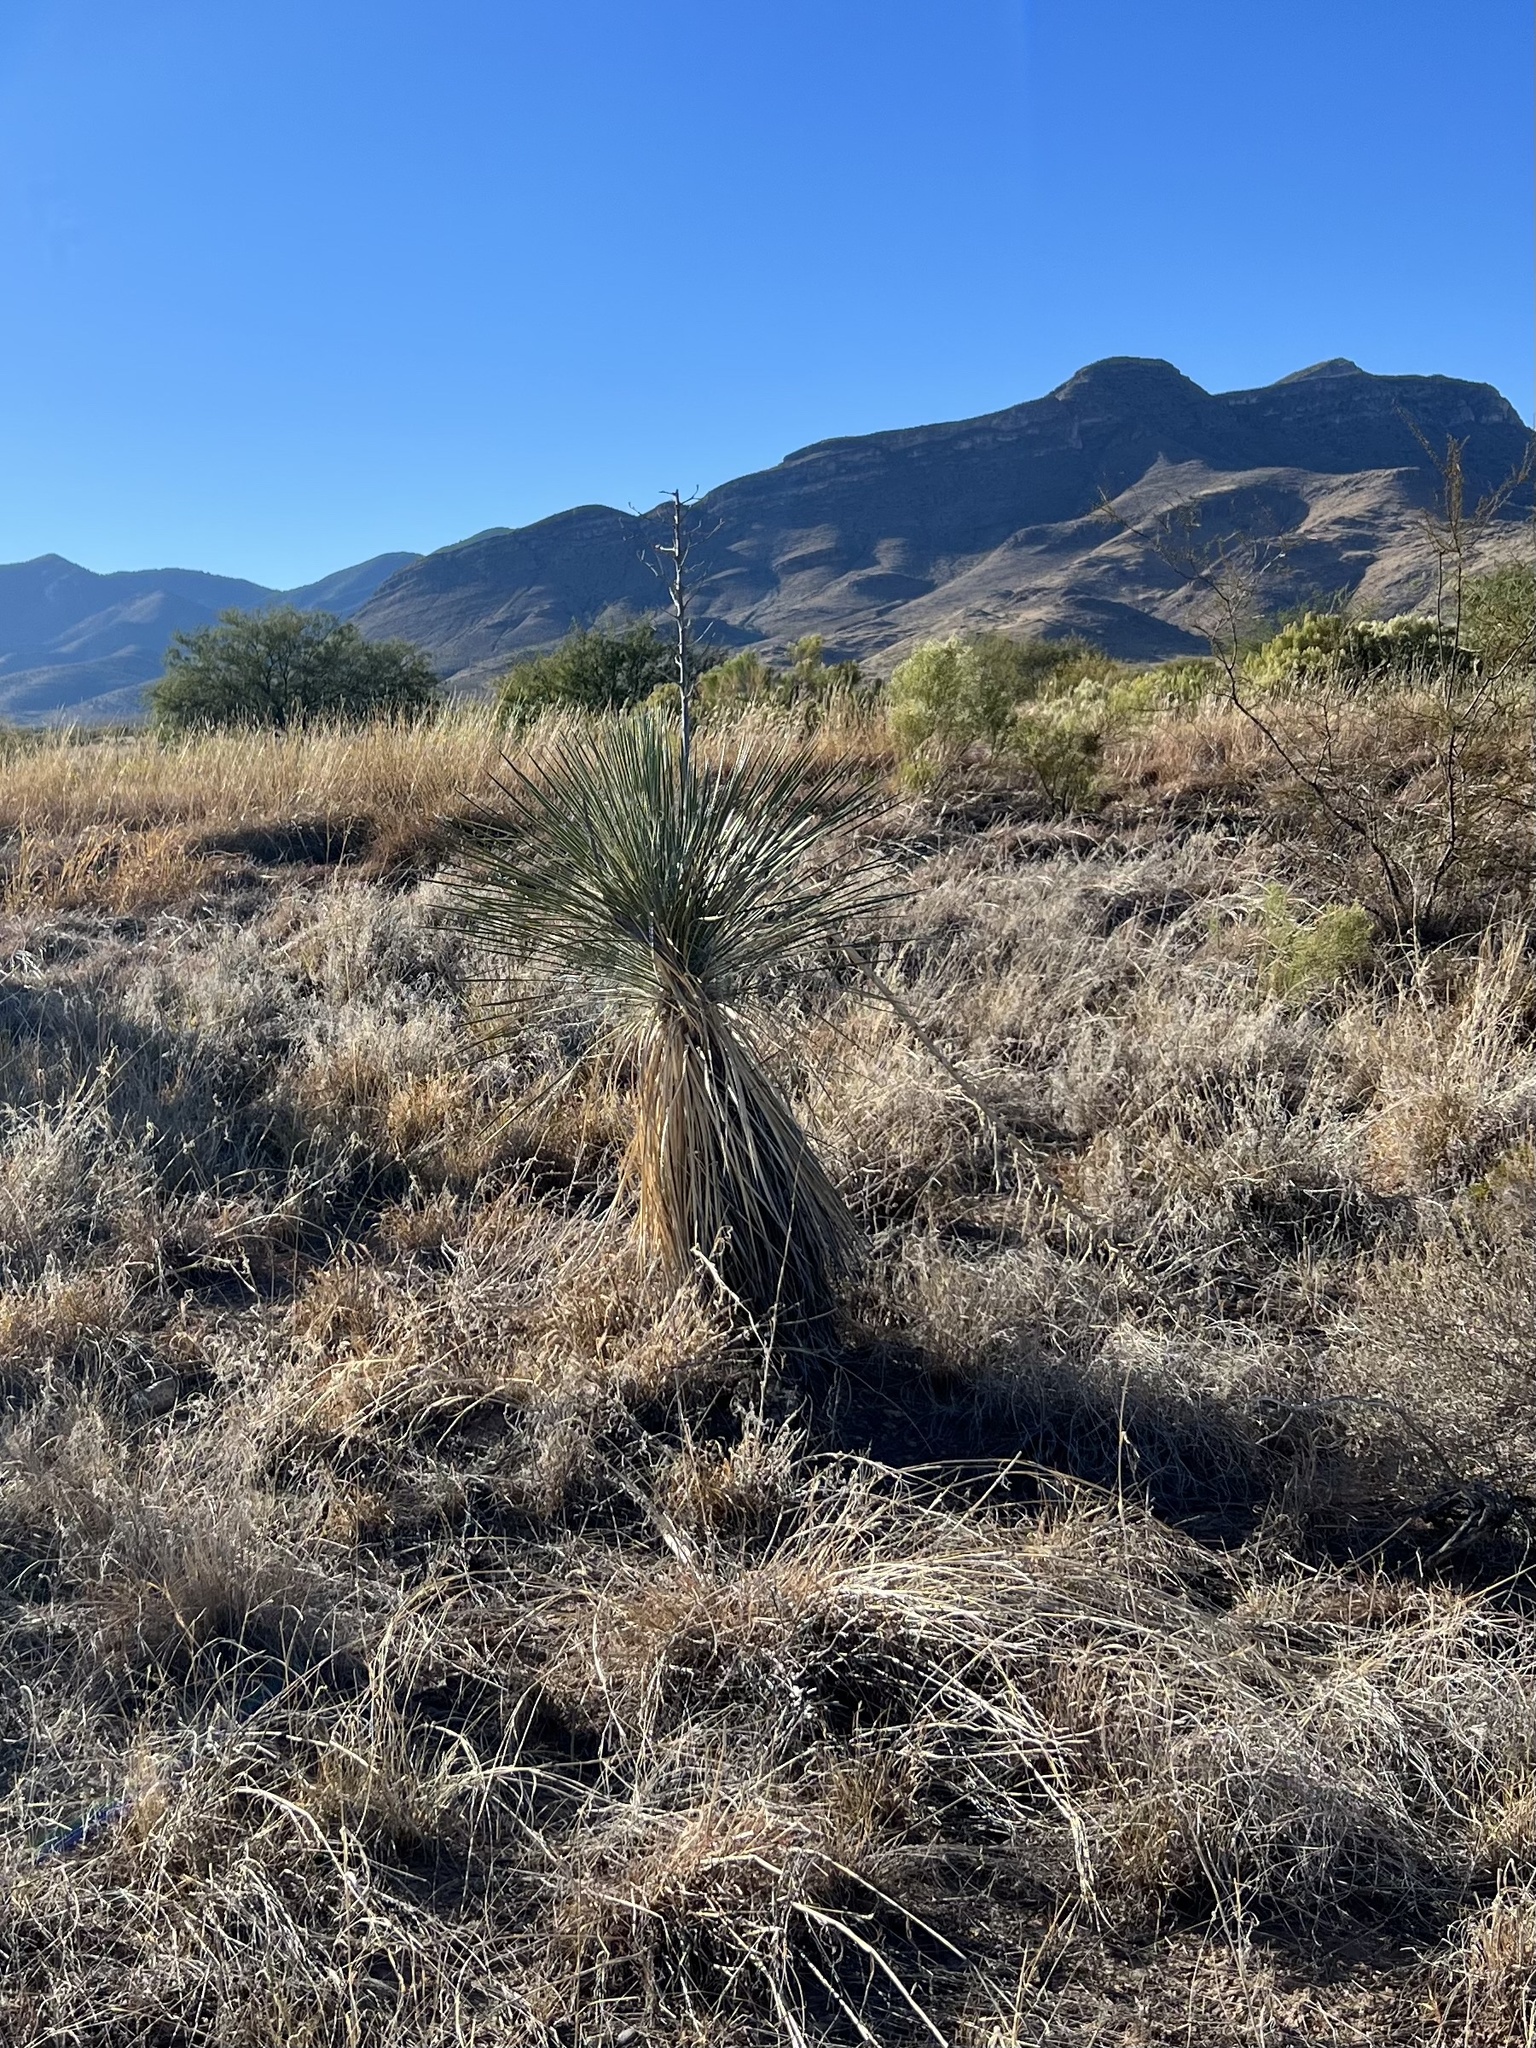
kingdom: Plantae
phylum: Tracheophyta
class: Liliopsida
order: Asparagales
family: Asparagaceae
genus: Yucca
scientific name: Yucca elata
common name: Palmella
